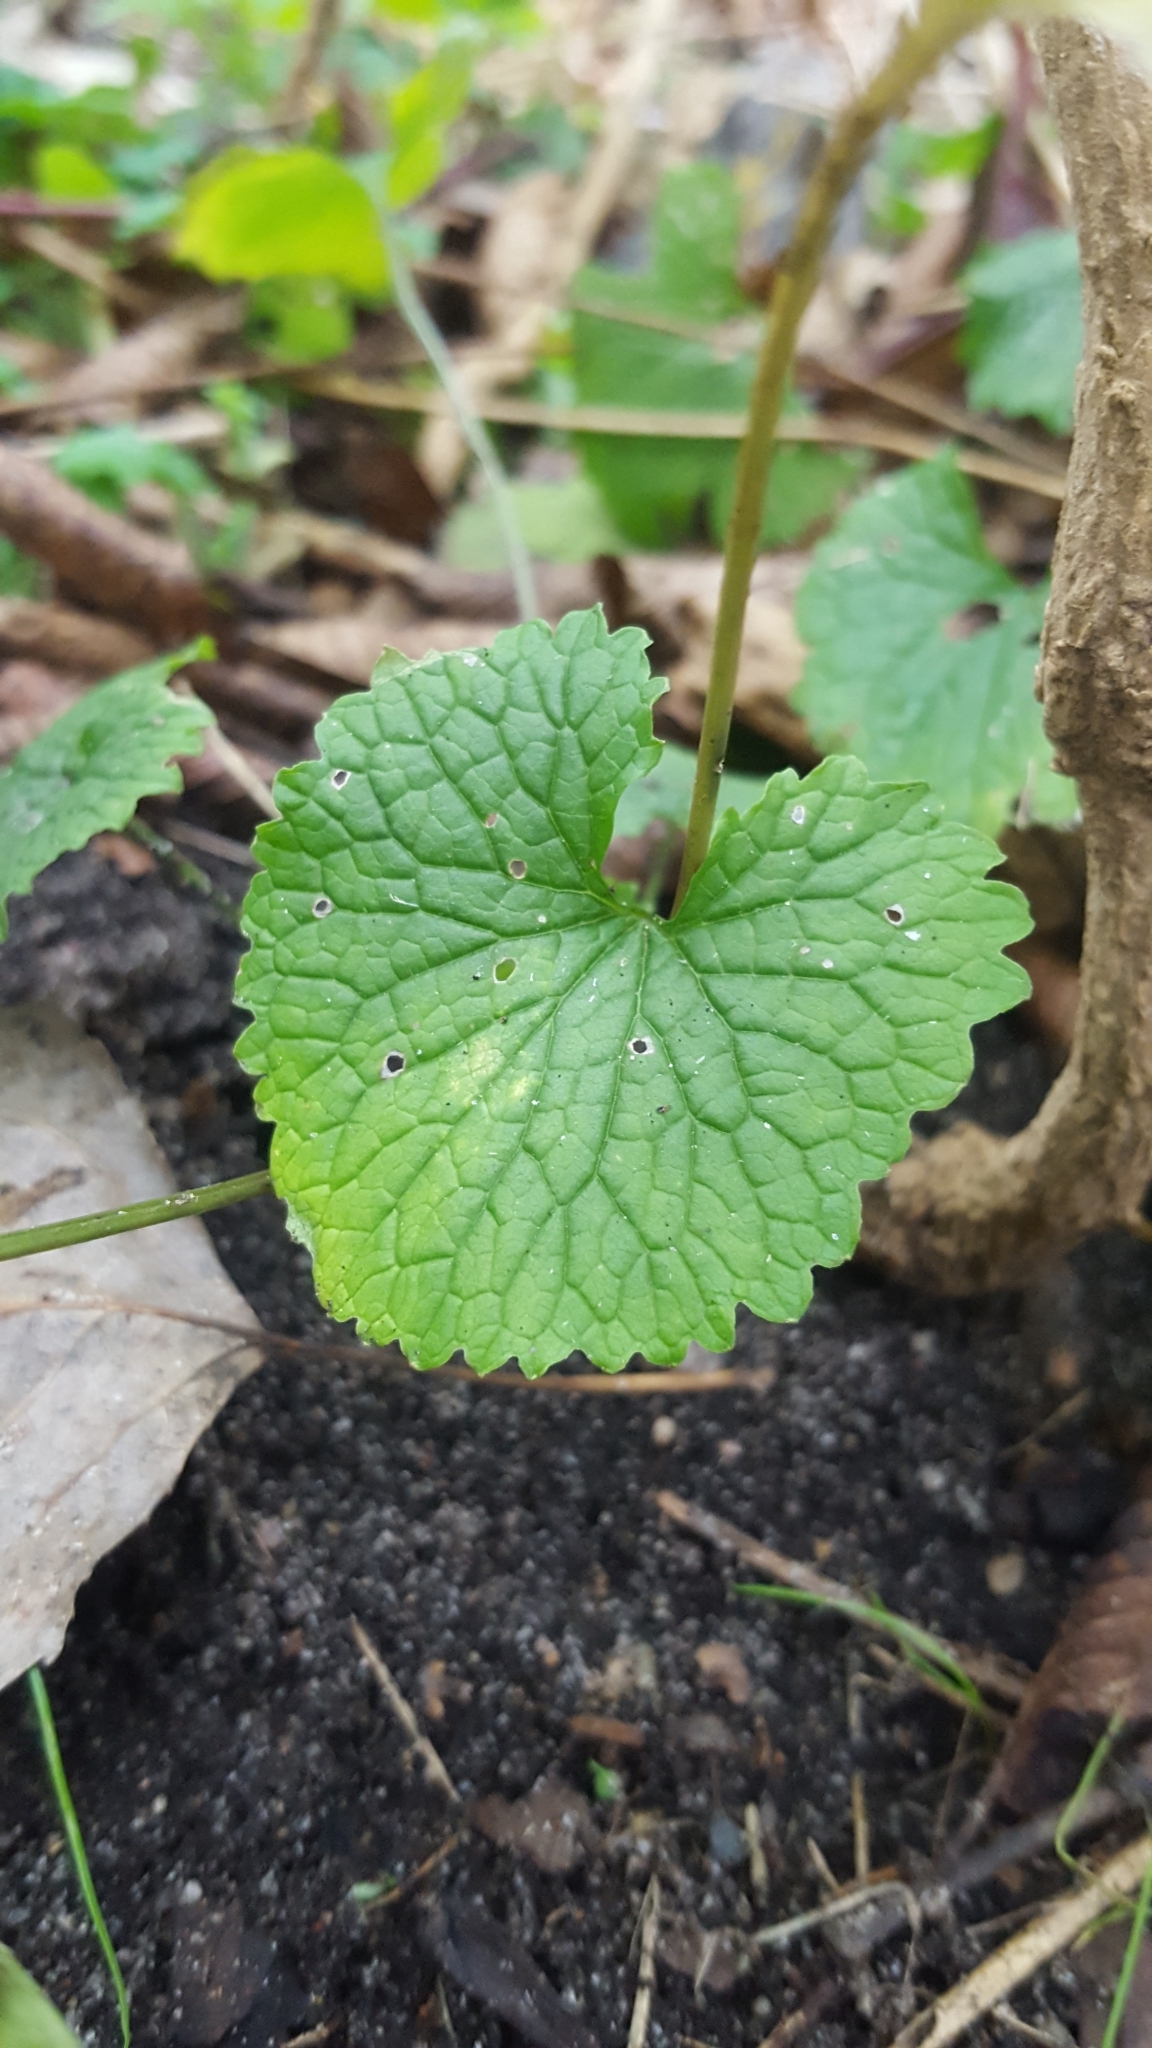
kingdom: Plantae
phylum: Tracheophyta
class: Magnoliopsida
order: Brassicales
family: Brassicaceae
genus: Alliaria
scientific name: Alliaria petiolata
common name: Garlic mustard
